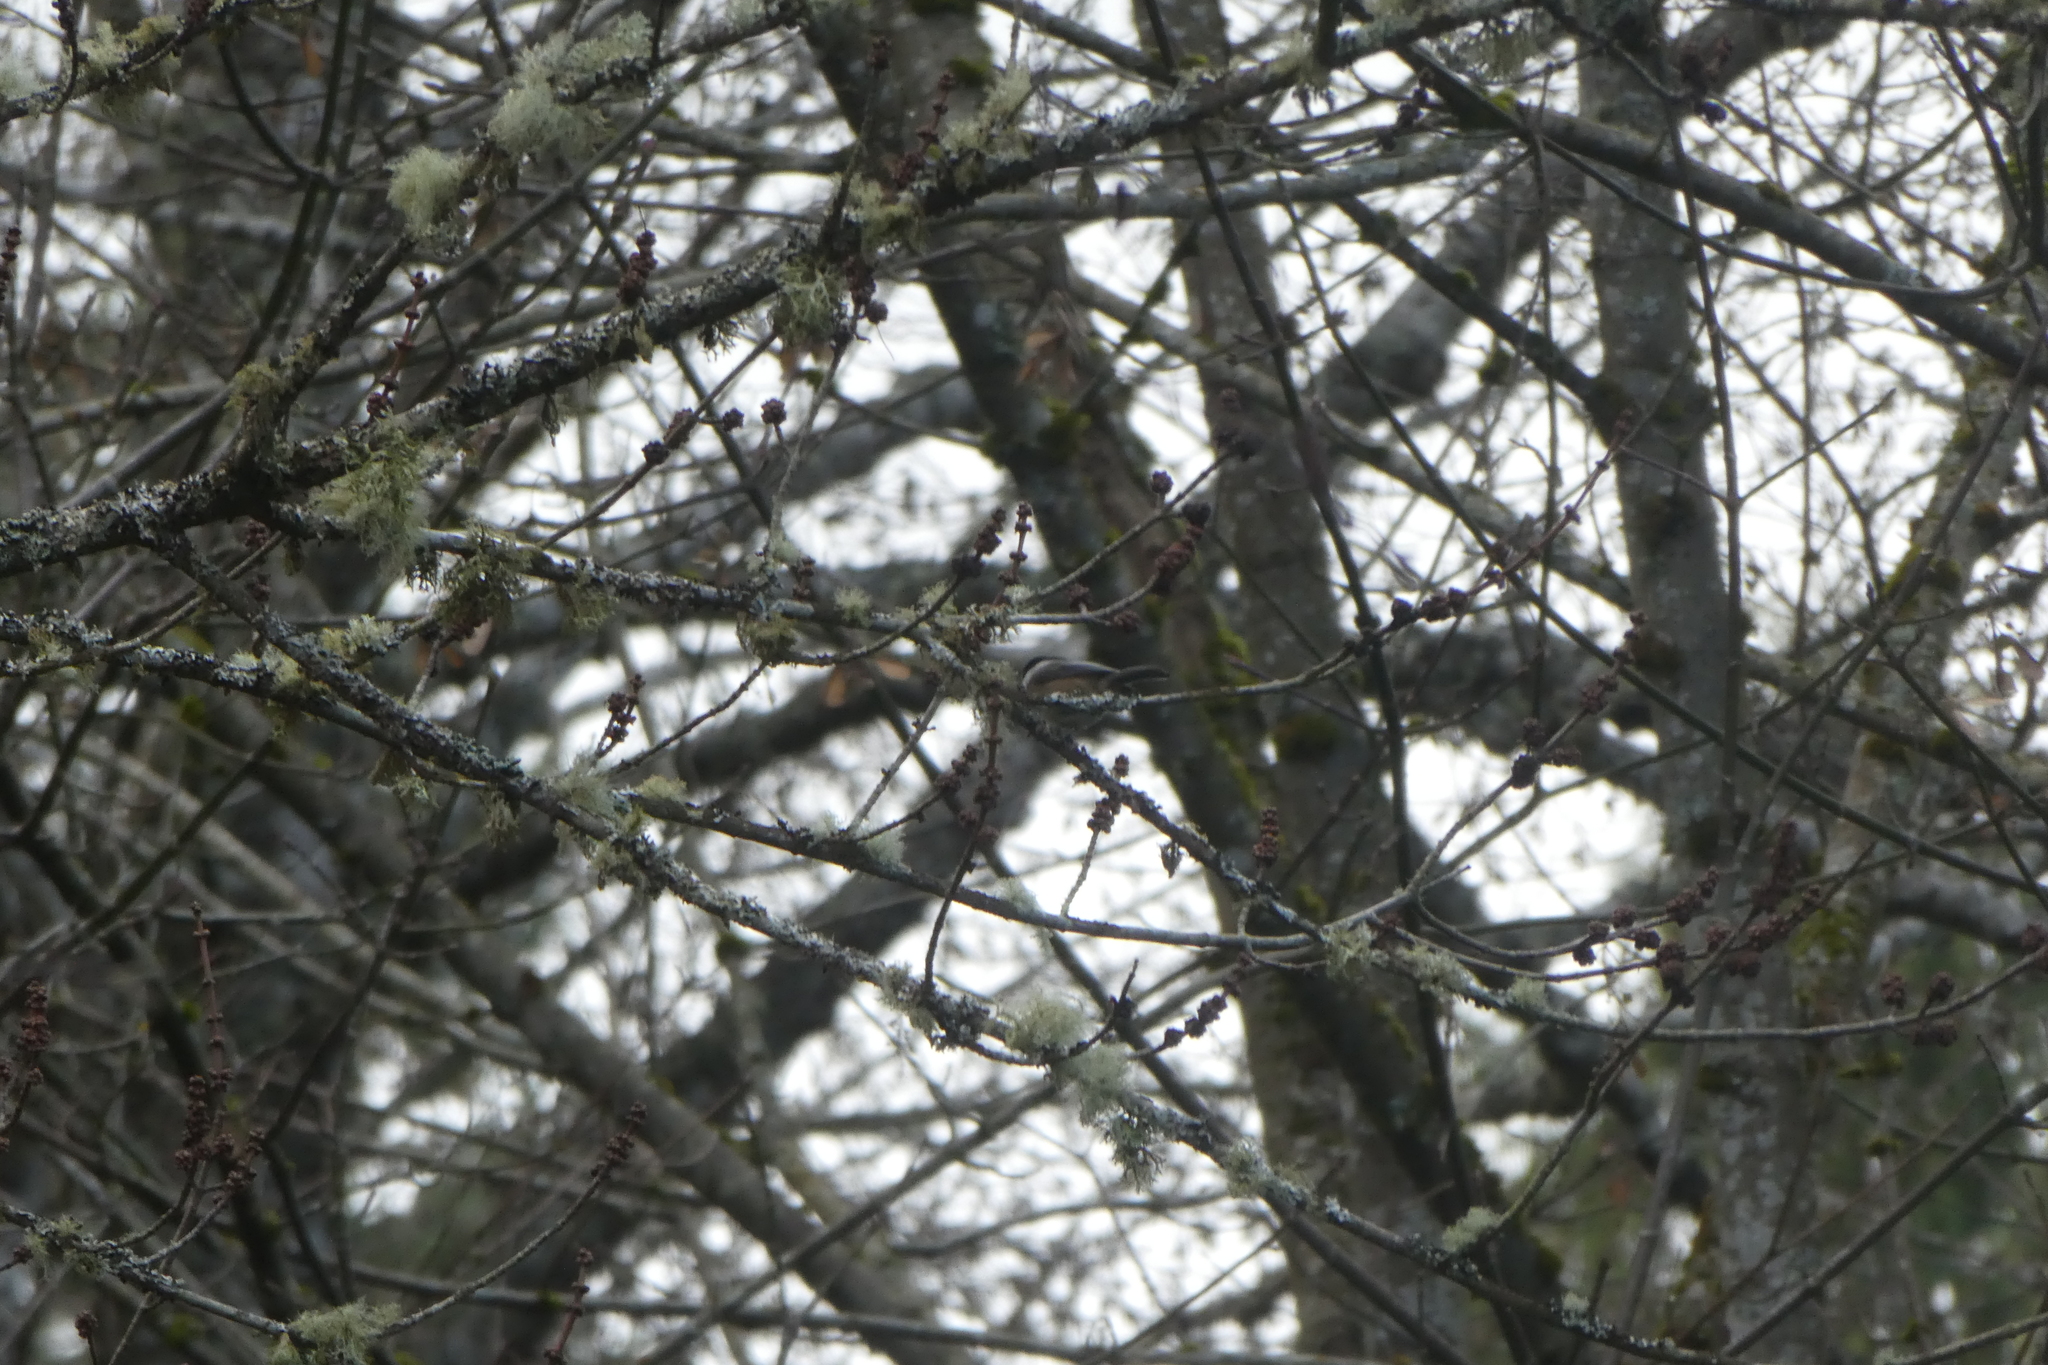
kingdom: Animalia
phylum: Chordata
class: Aves
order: Passeriformes
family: Paridae
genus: Poecile
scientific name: Poecile atricapillus
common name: Black-capped chickadee
